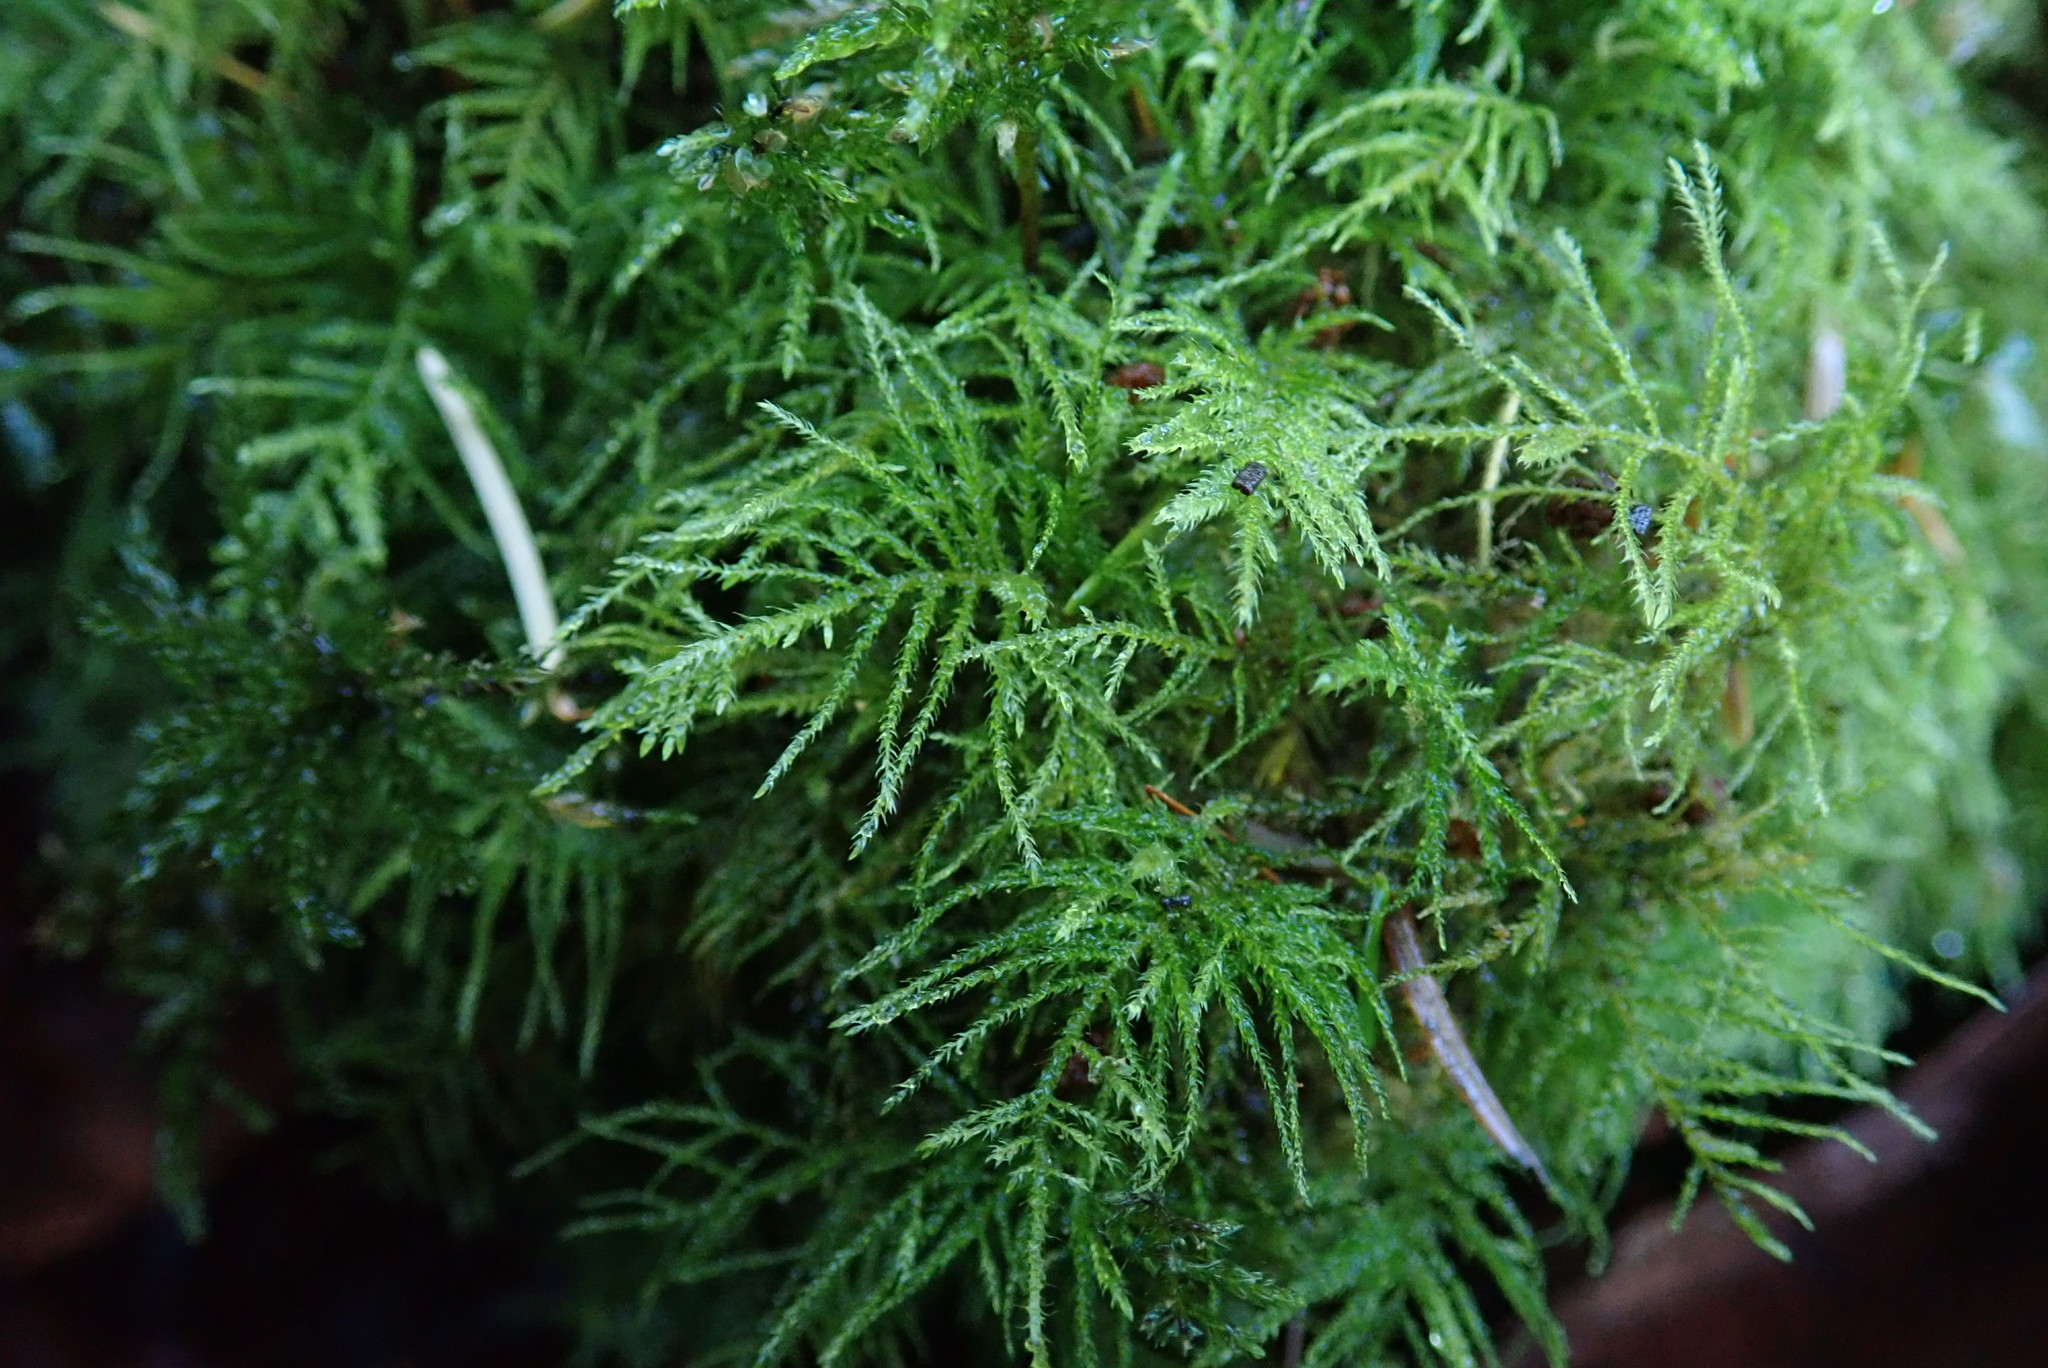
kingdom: Plantae
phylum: Bryophyta
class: Bryopsida
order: Hypnales
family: Brachytheciaceae
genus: Kindbergia
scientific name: Kindbergia praelonga
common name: Slender beaked moss
